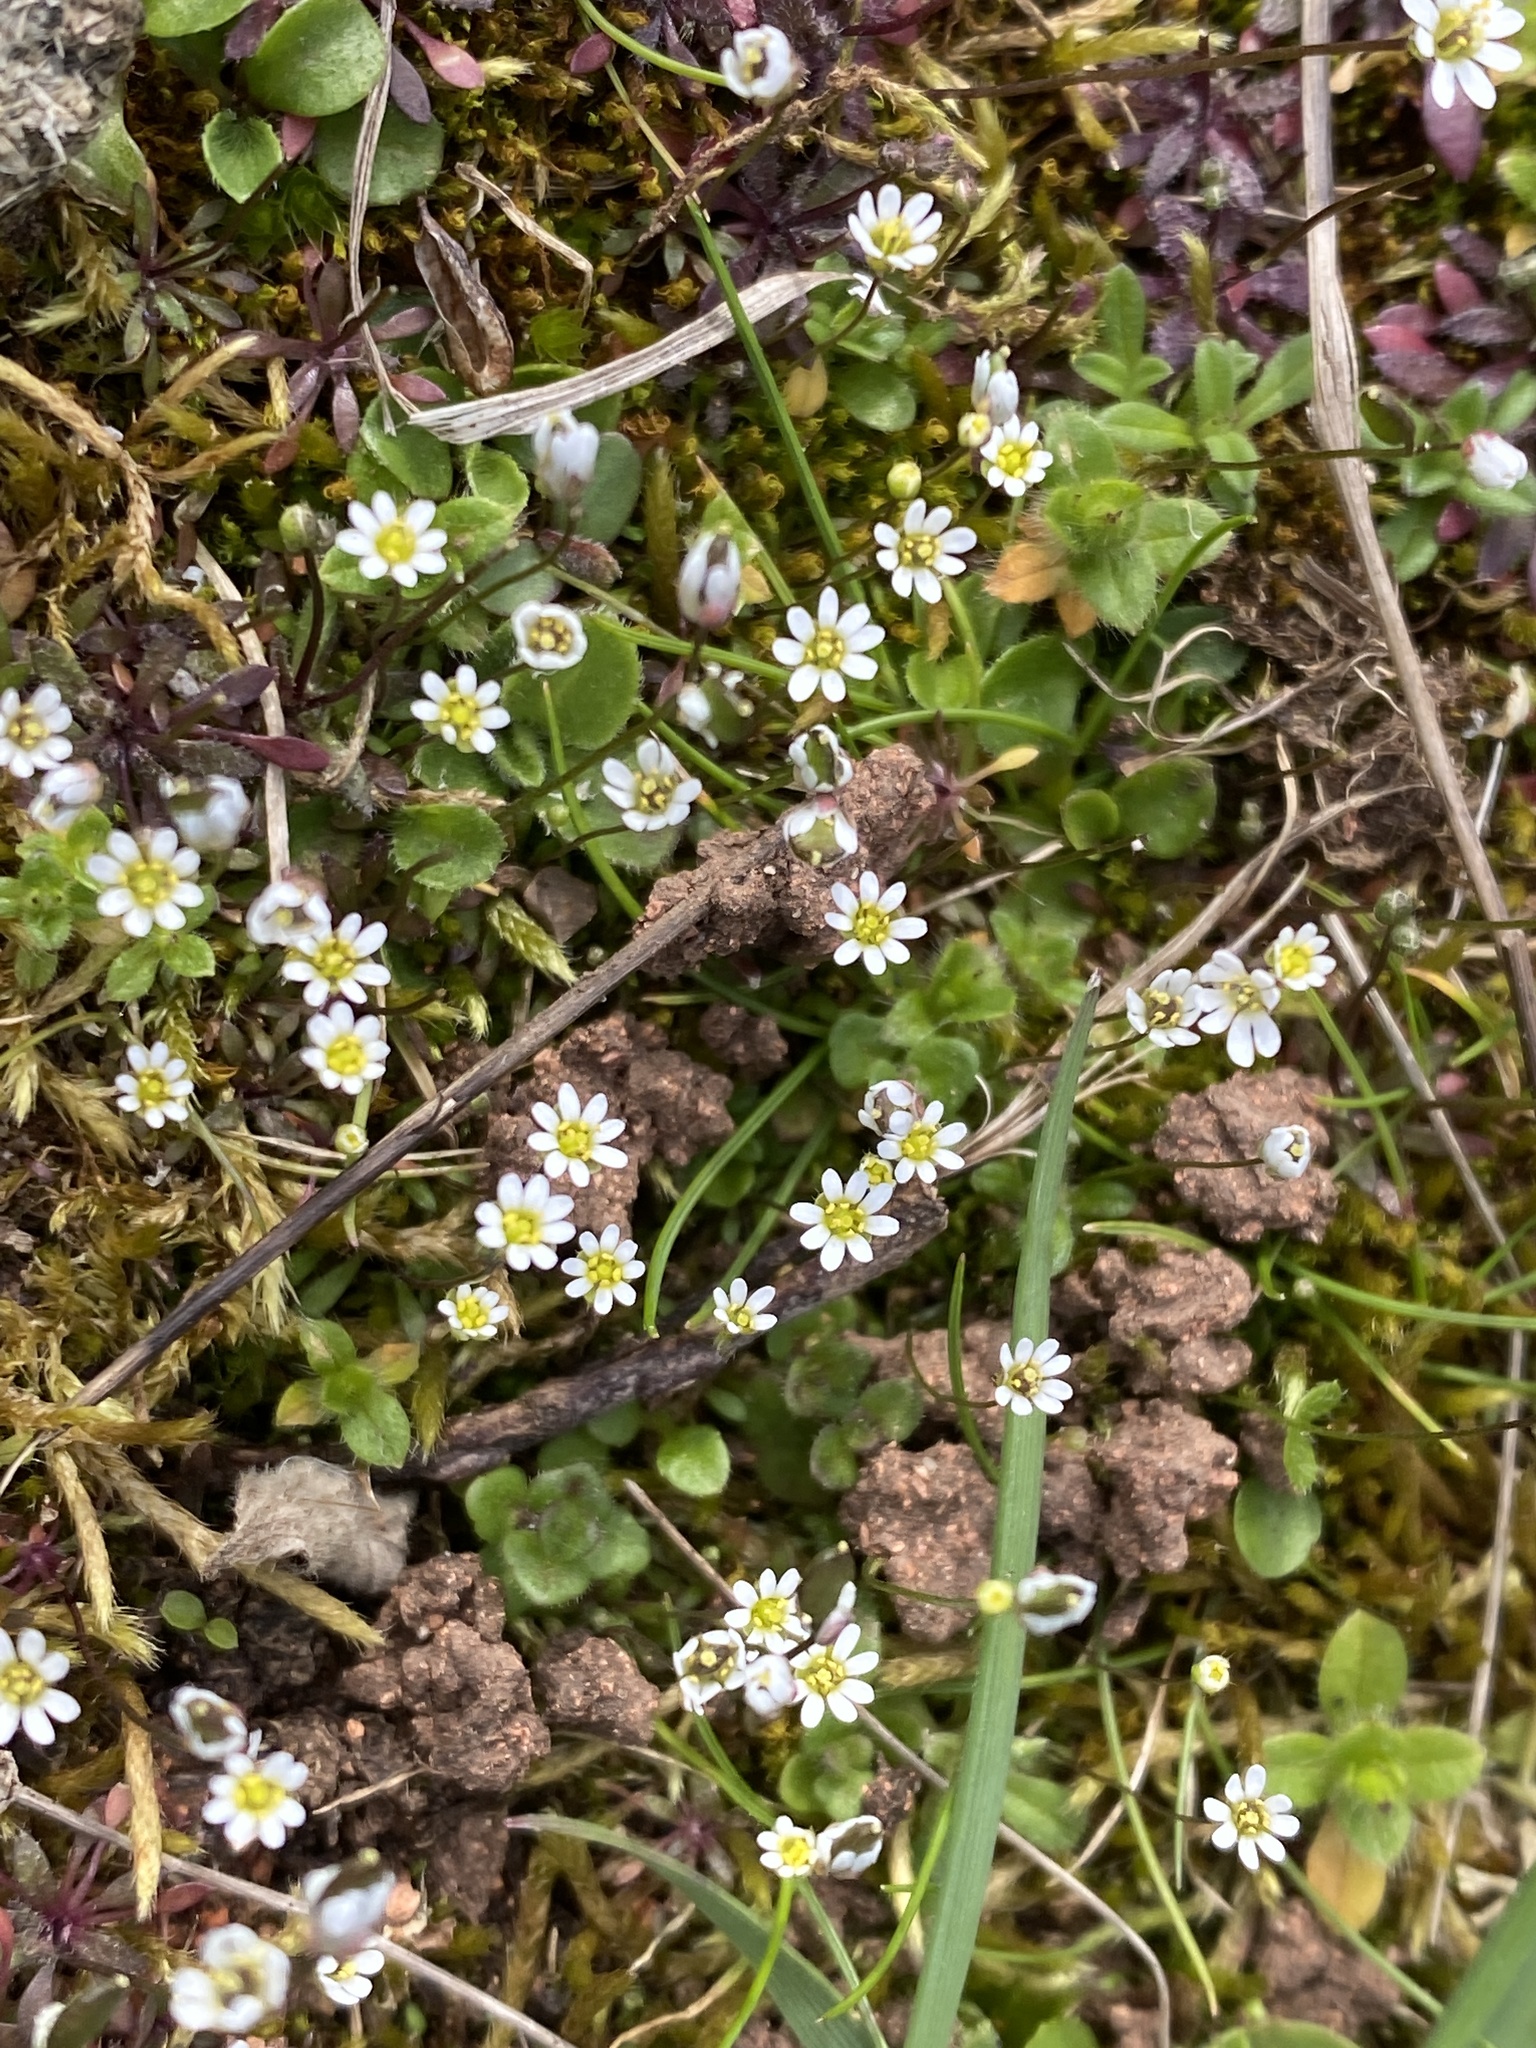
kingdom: Plantae
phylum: Tracheophyta
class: Magnoliopsida
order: Brassicales
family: Brassicaceae
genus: Draba
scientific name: Draba verna
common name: Spring draba
